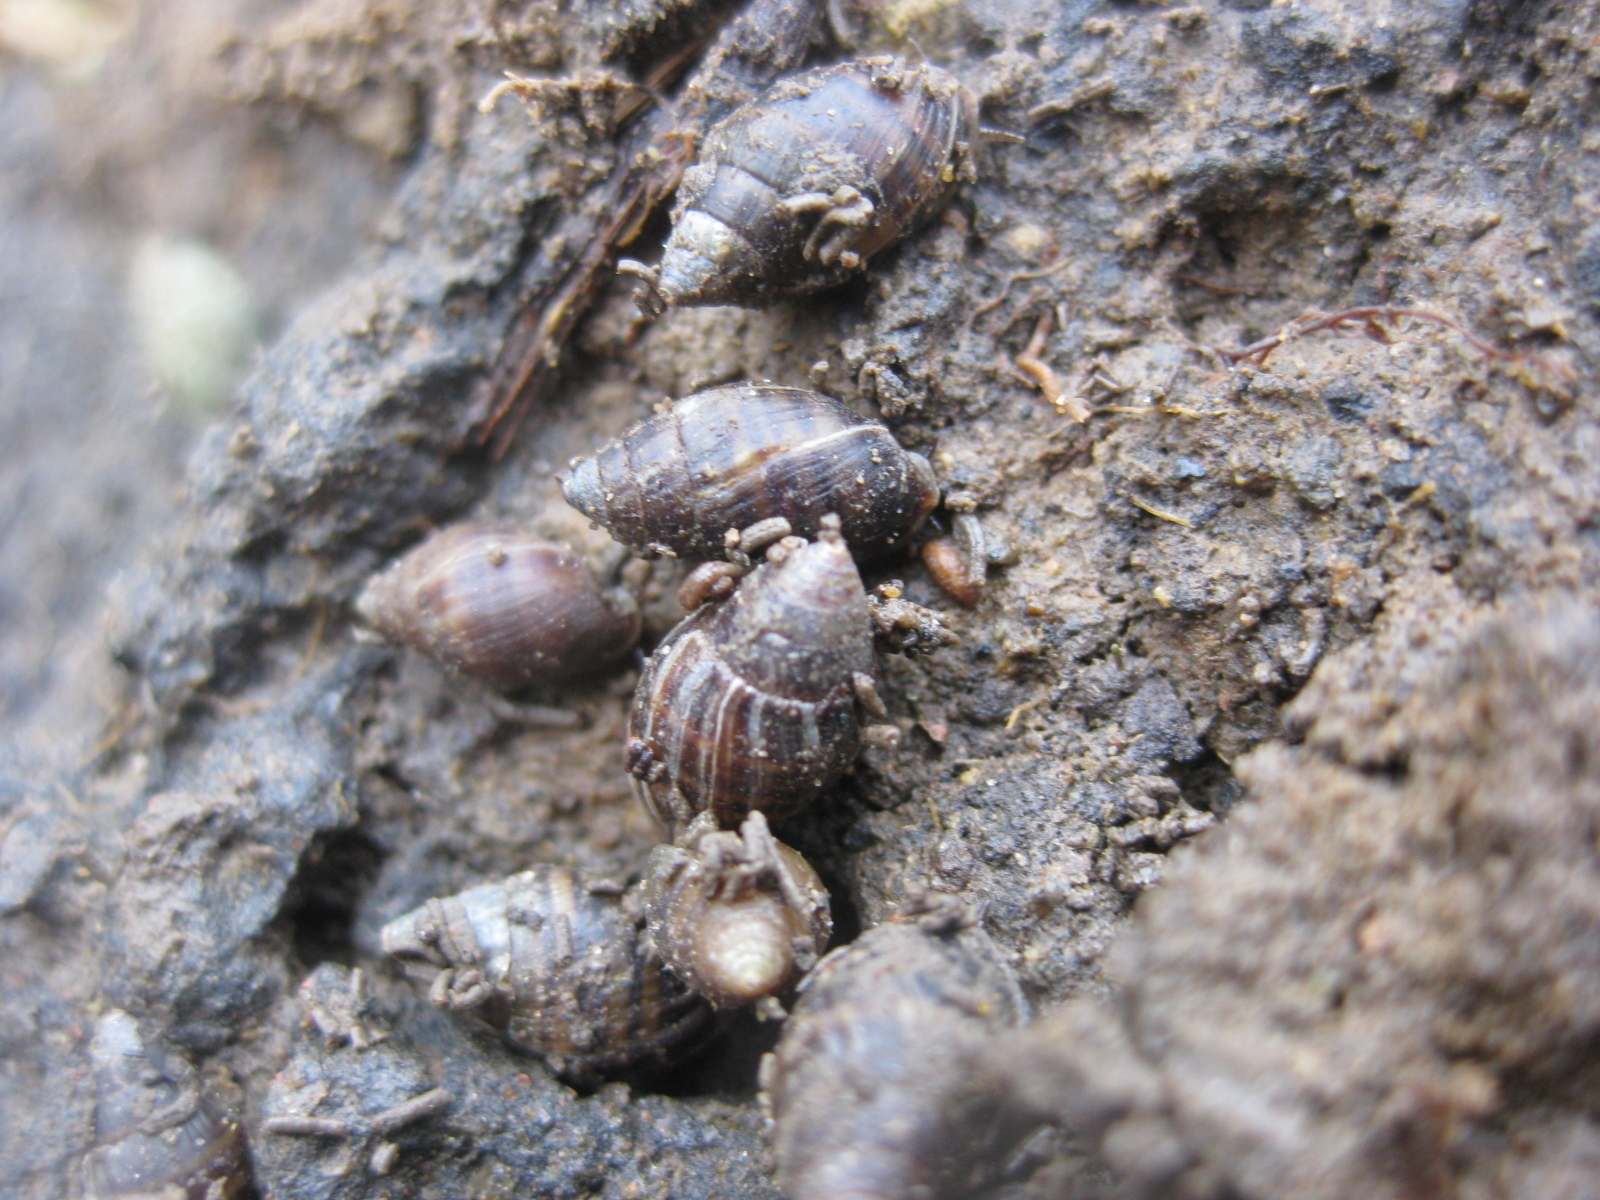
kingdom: Animalia
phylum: Mollusca
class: Gastropoda
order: Ellobiida
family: Ellobiidae
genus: Pleuroloba
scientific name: Pleuroloba costellaris
